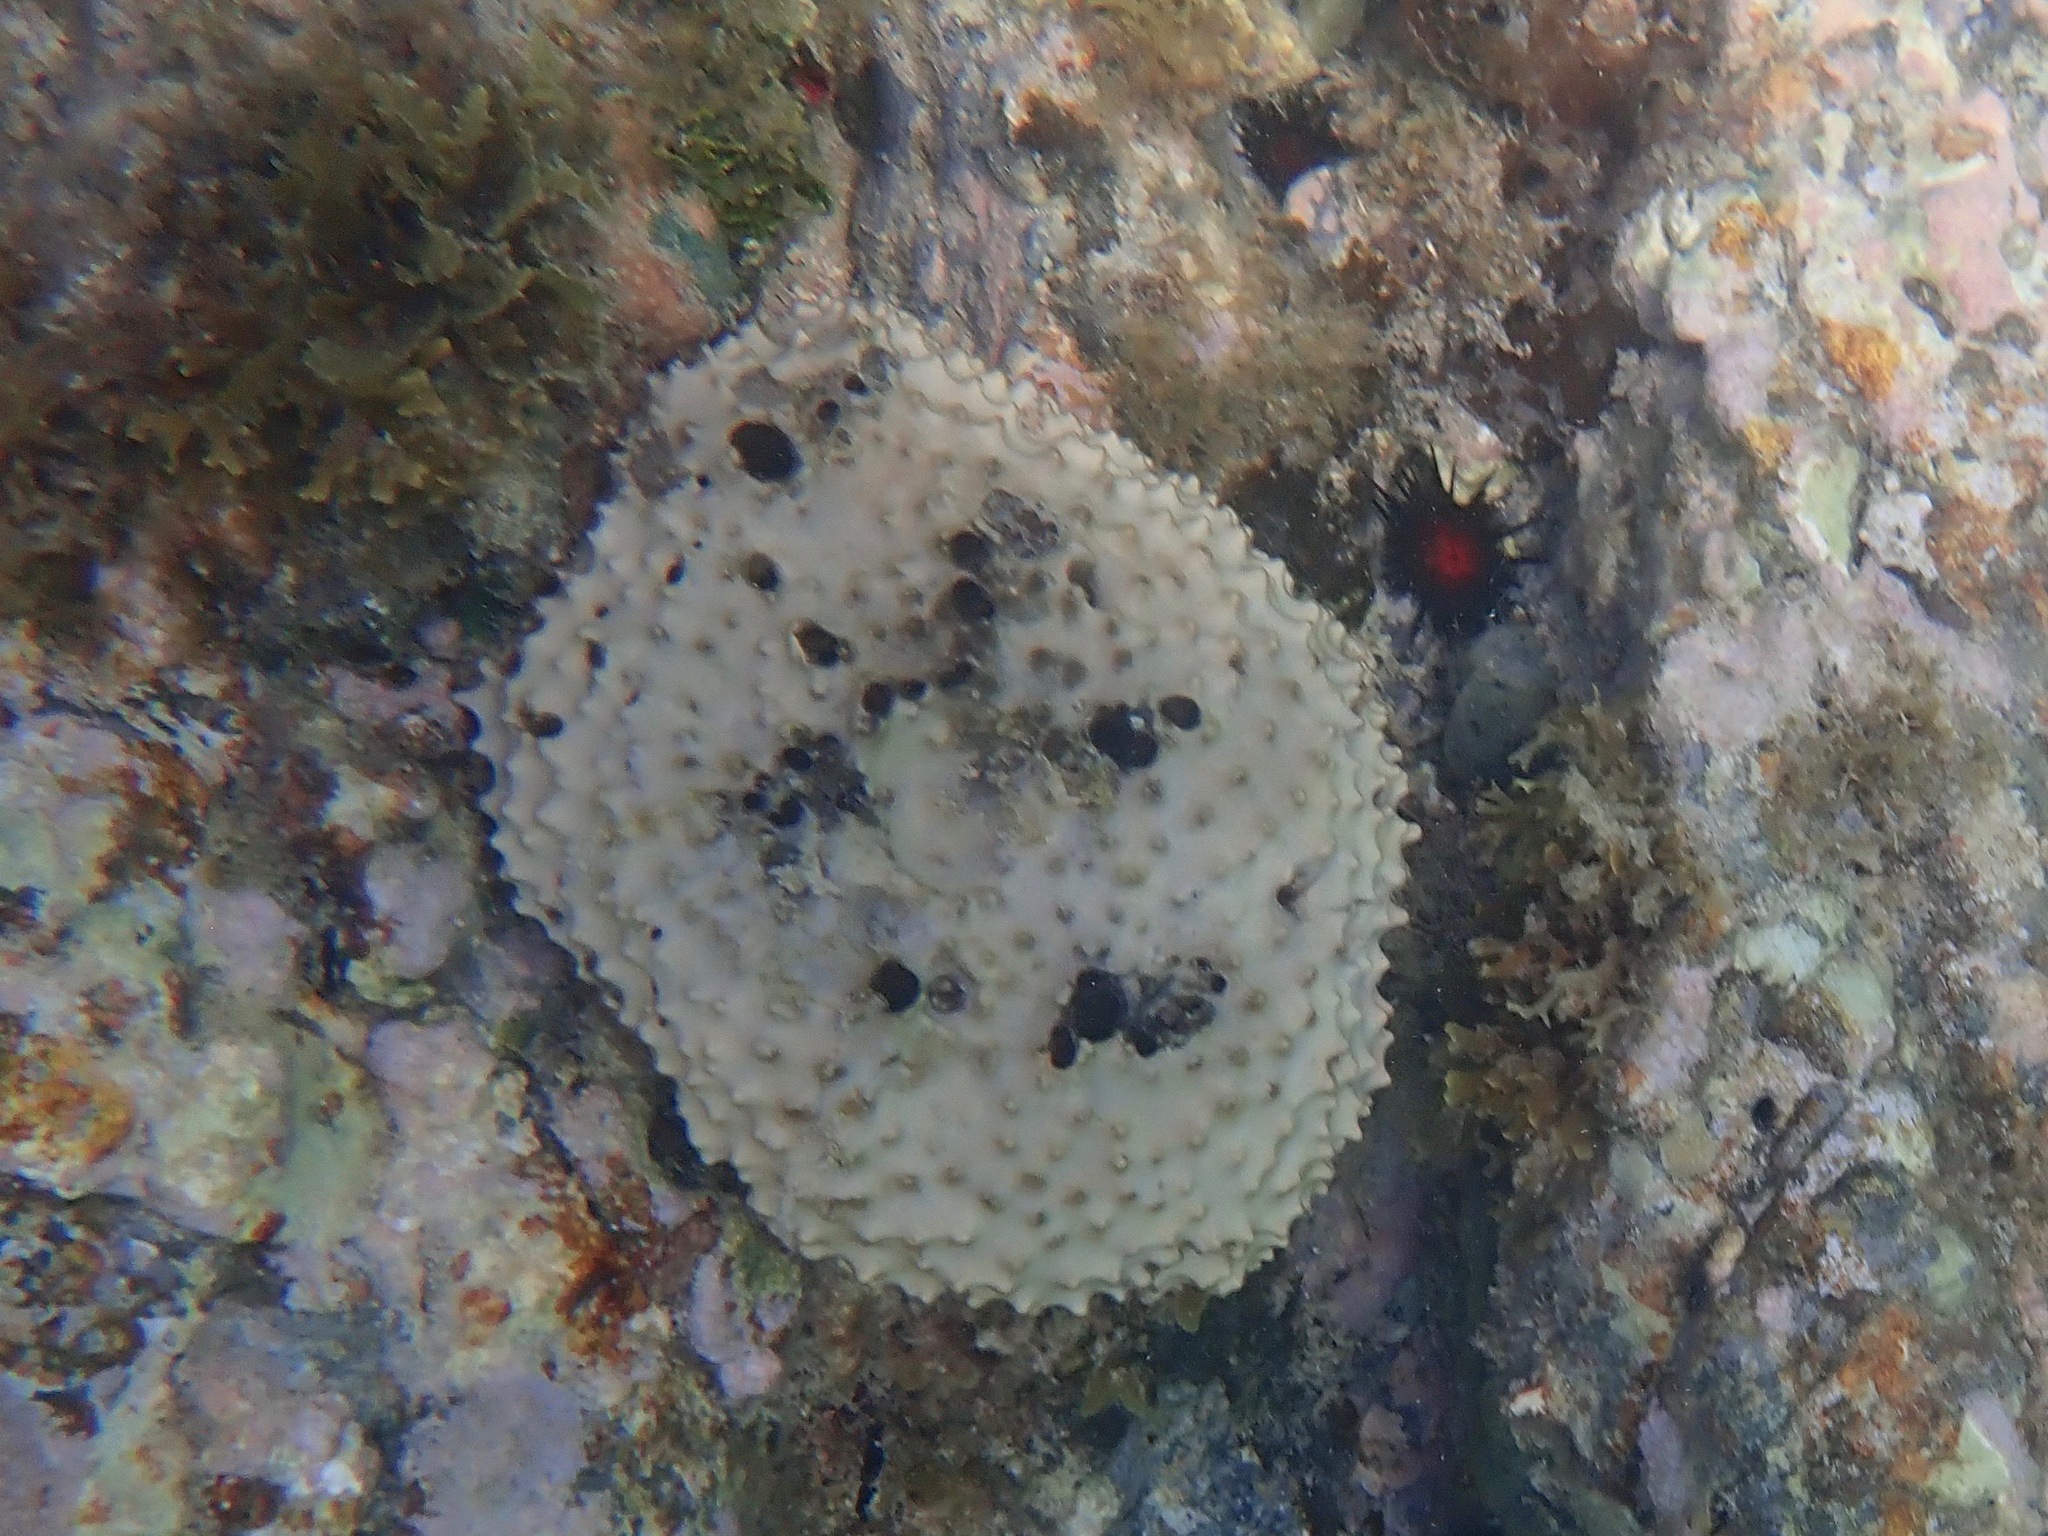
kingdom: Animalia
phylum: Porifera
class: Demospongiae
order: Dictyoceratida
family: Irciniidae
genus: Ircinia
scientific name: Ircinia felix
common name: Stinker sponge
